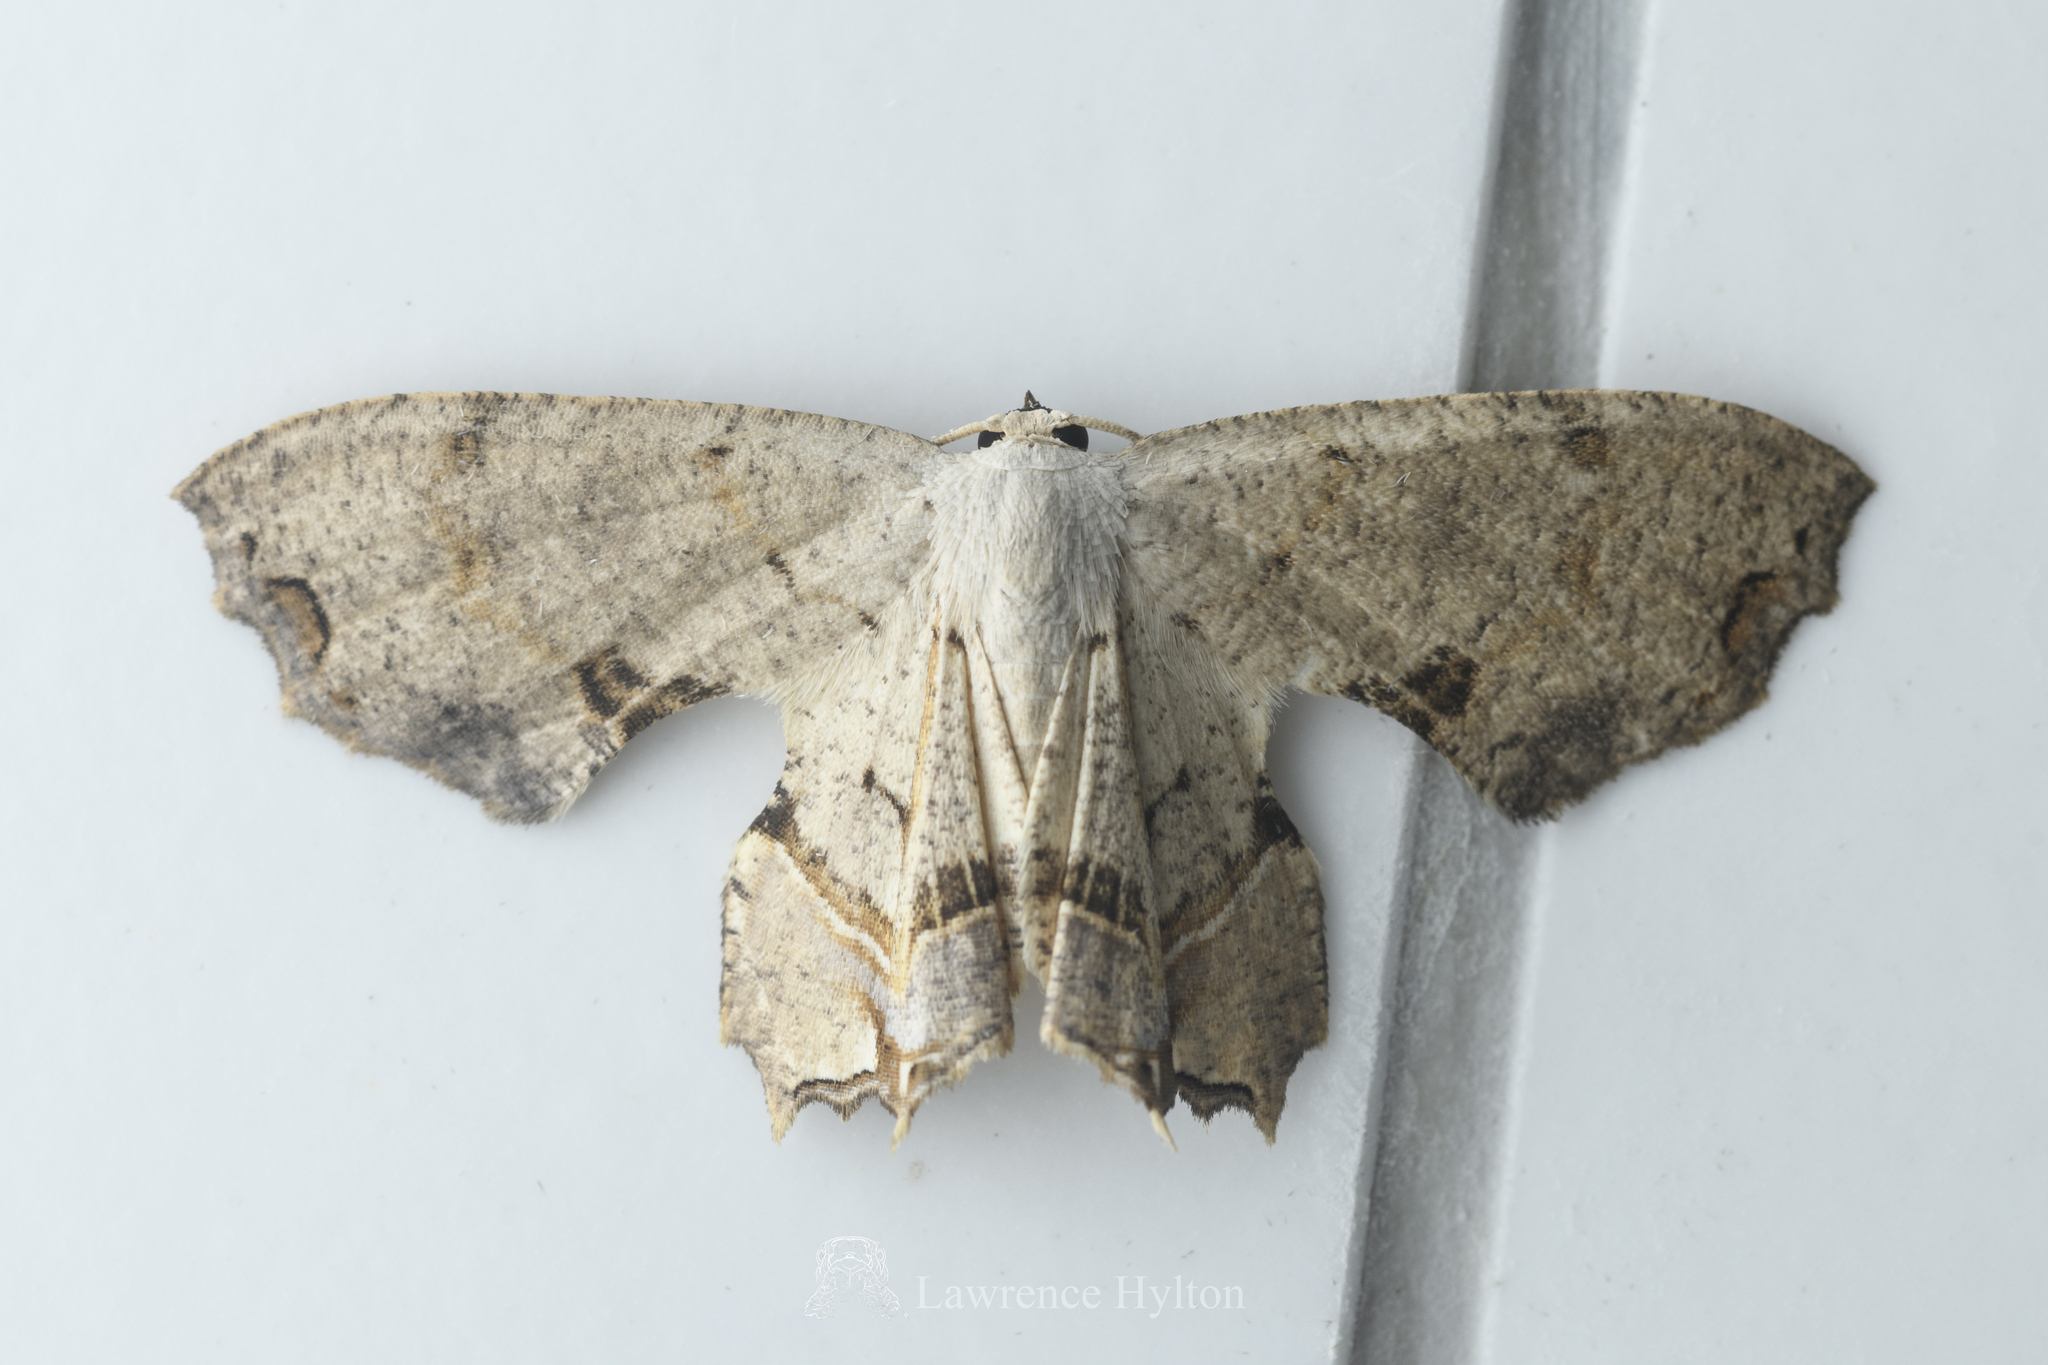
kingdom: Animalia
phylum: Arthropoda
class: Insecta
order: Lepidoptera
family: Uraniidae
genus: Dysaethria
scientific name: Dysaethria flavistriga
